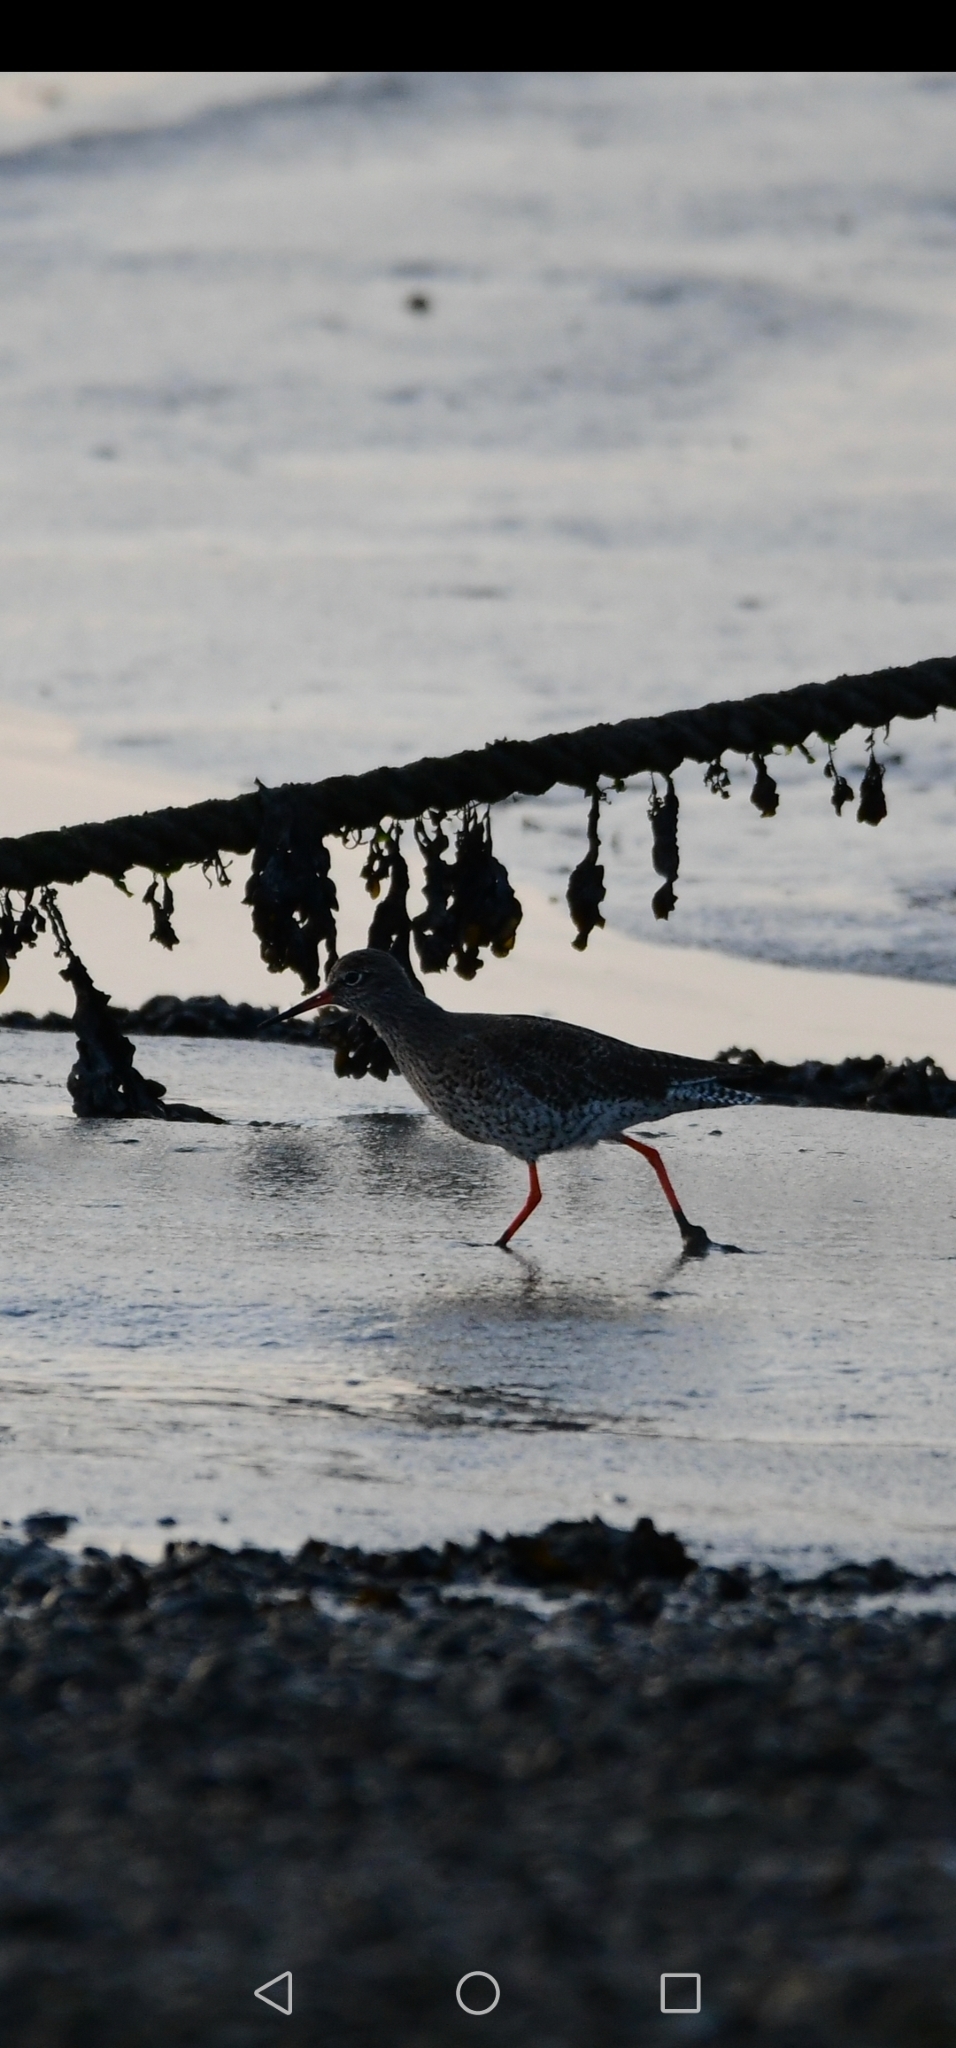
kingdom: Animalia
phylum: Chordata
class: Aves
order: Charadriiformes
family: Scolopacidae
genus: Tringa
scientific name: Tringa totanus
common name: Common redshank
